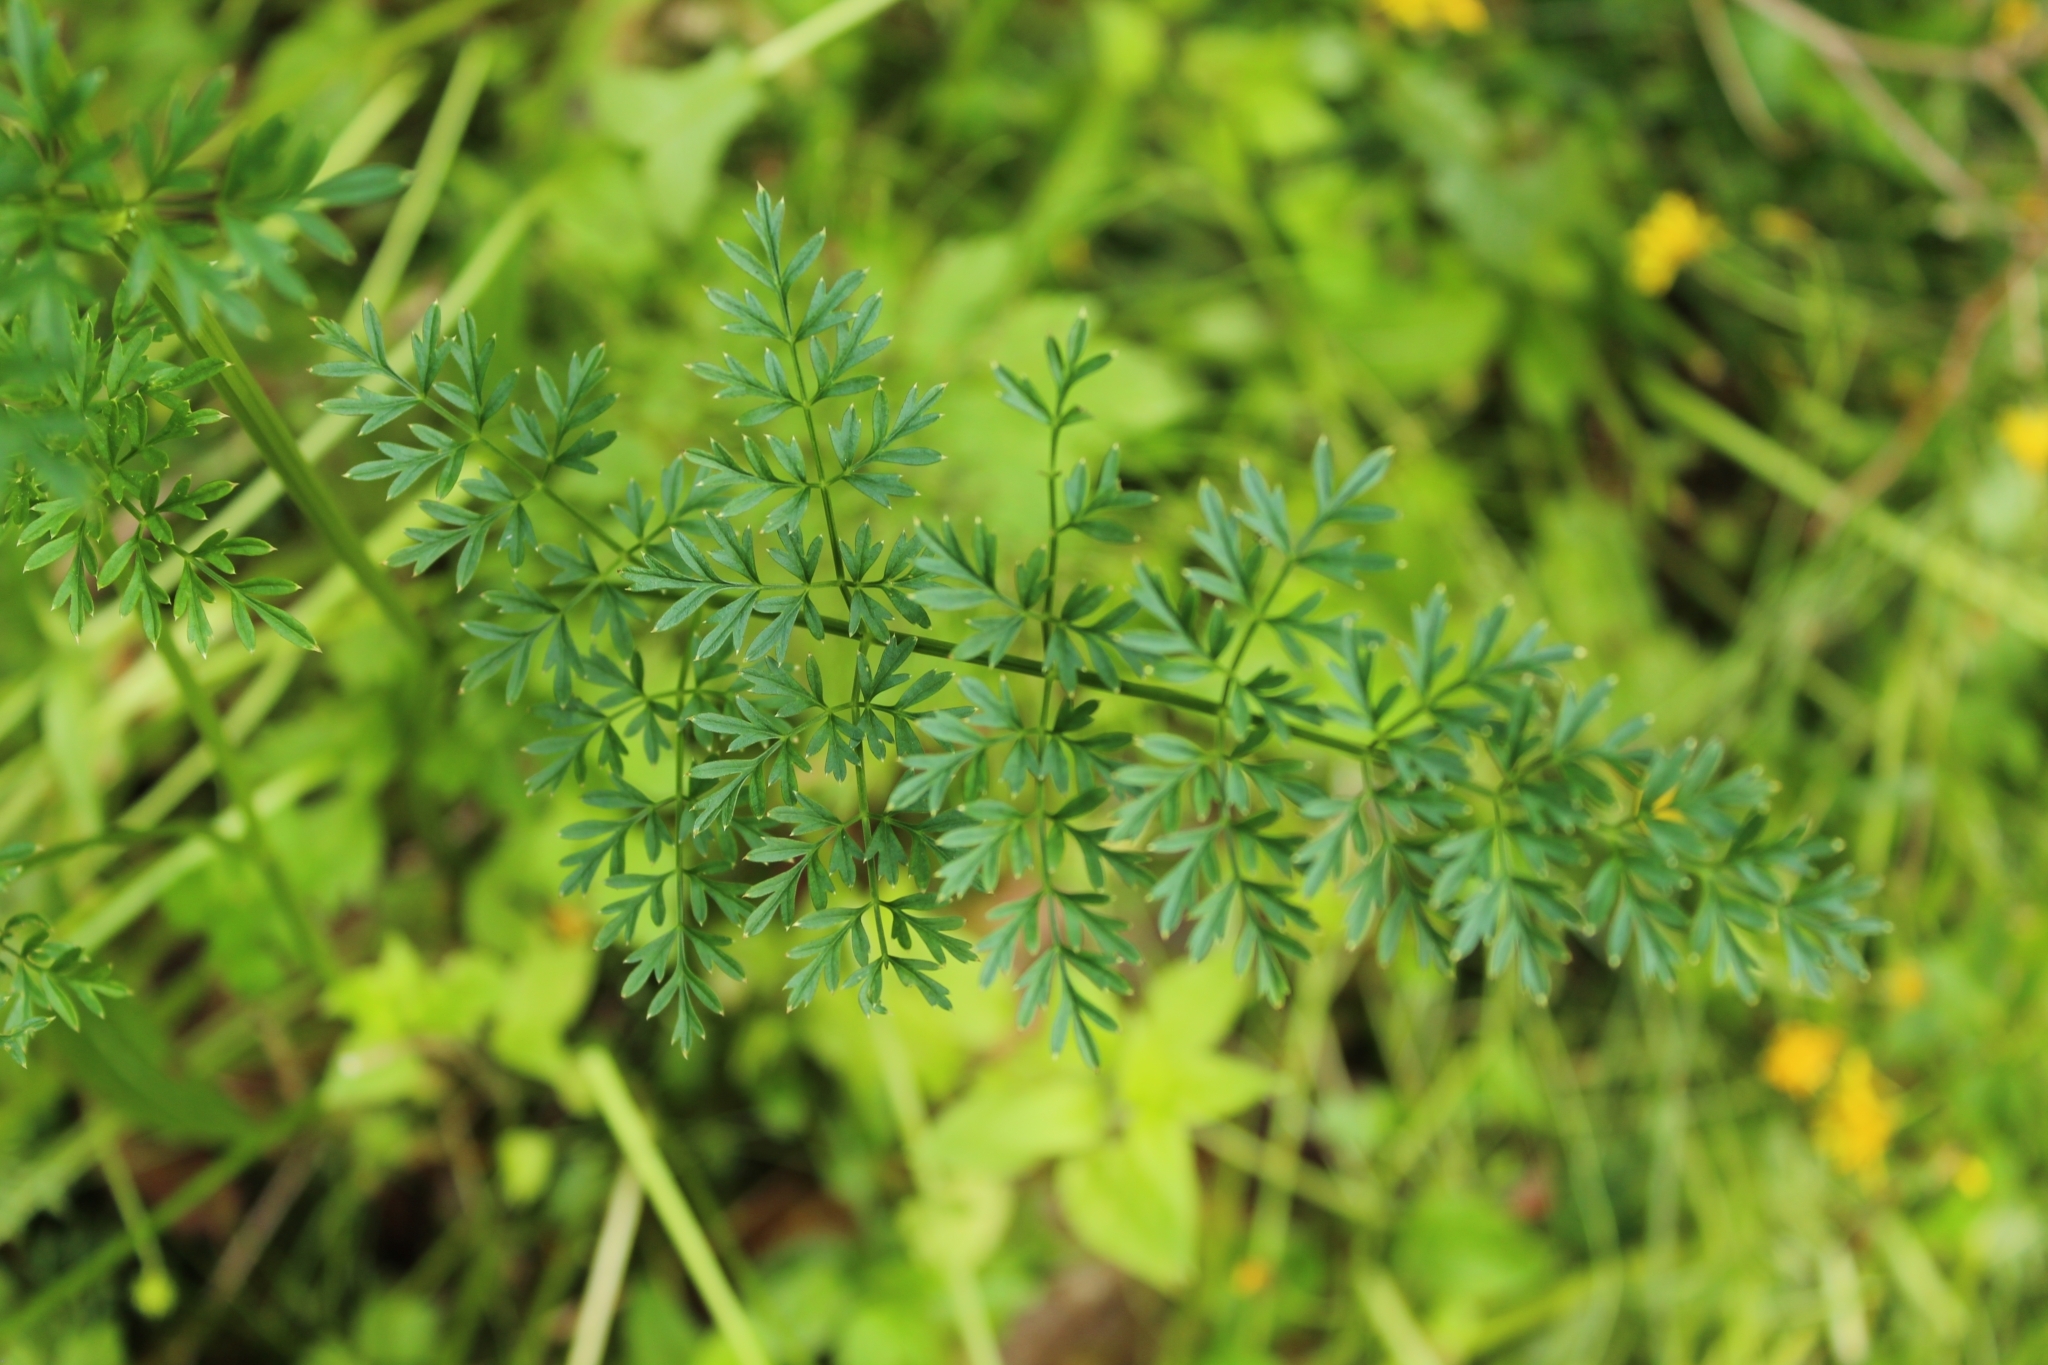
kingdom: Plantae
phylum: Tracheophyta
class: Magnoliopsida
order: Apiales
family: Apiaceae
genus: Selinum
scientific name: Selinum carvifolia
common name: Cambridge milk-parsley
